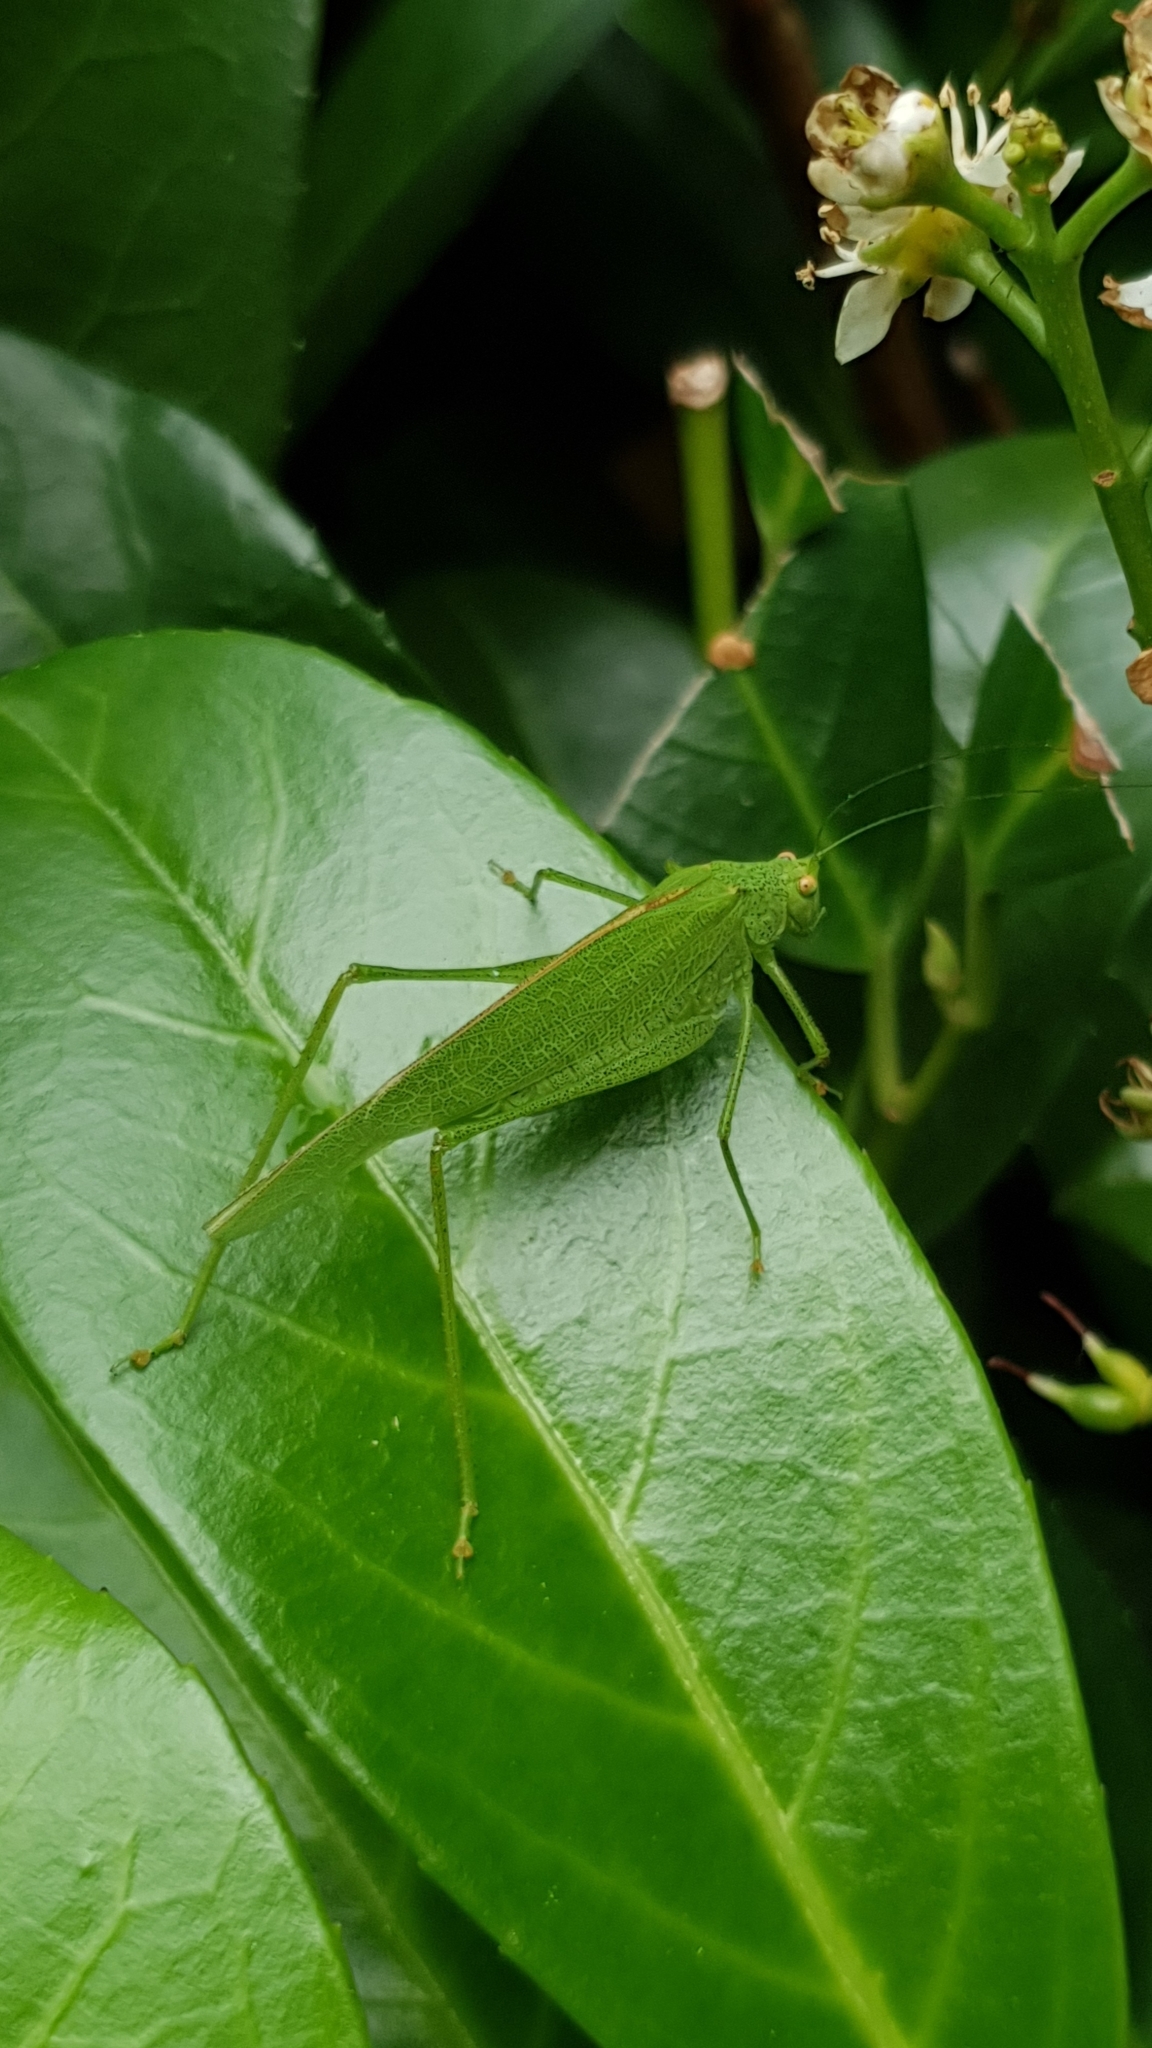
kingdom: Animalia
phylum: Arthropoda
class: Insecta
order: Orthoptera
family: Tettigoniidae
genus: Phaneroptera
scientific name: Phaneroptera nana
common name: Southern sickle bush-cricket
